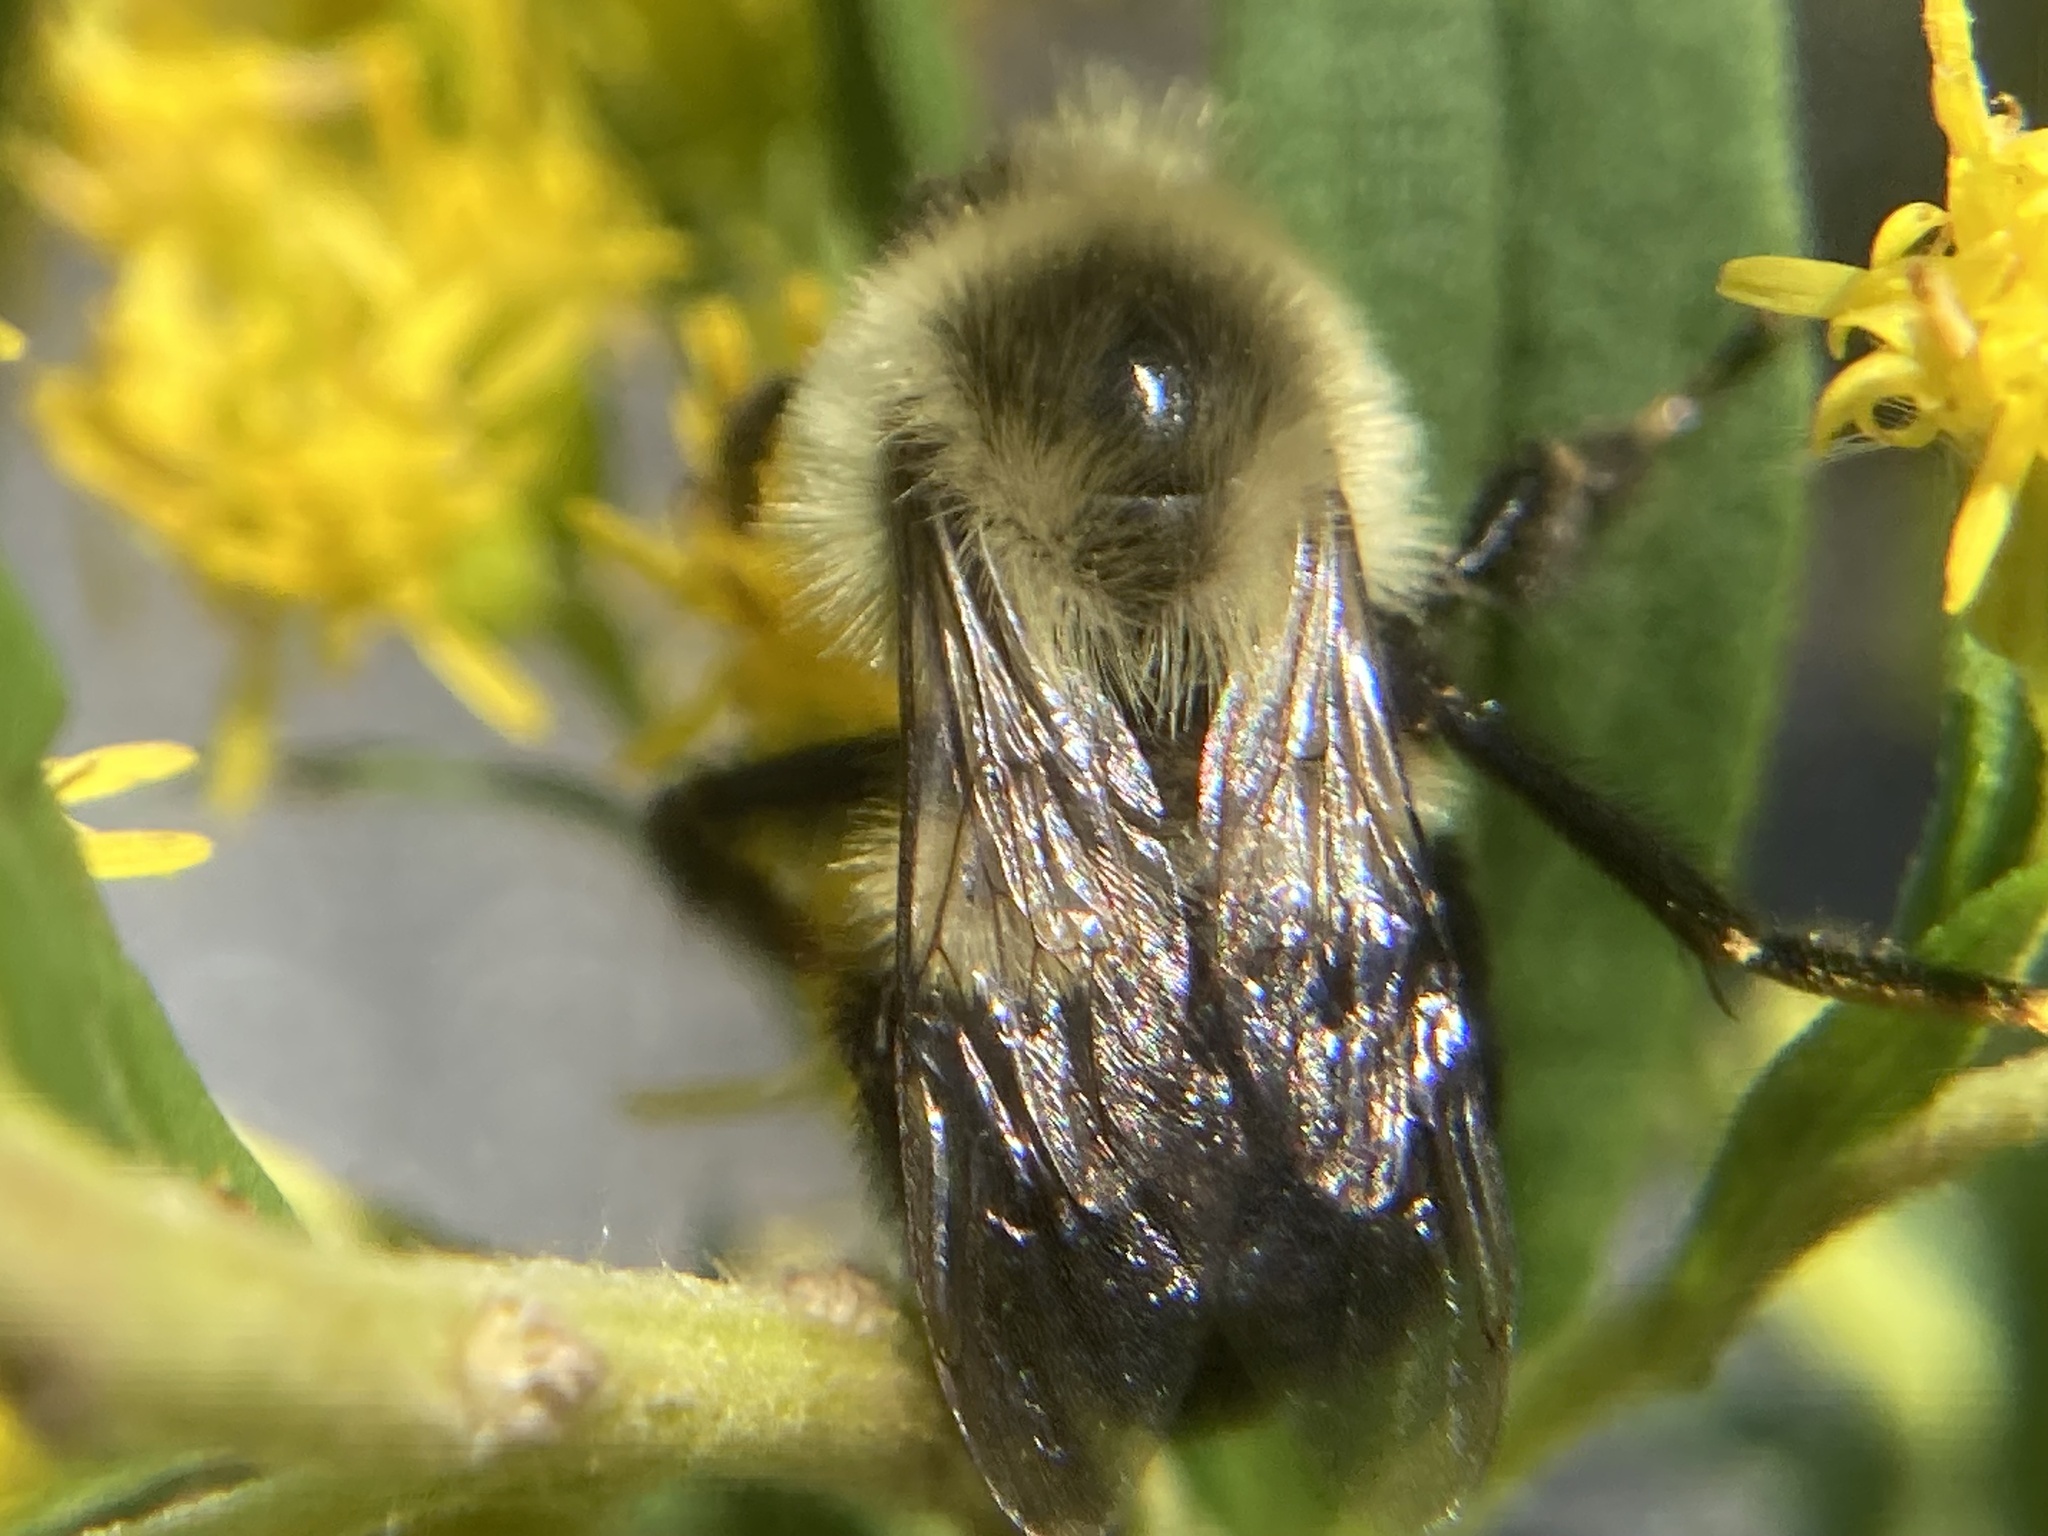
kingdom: Animalia
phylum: Arthropoda
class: Insecta
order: Hymenoptera
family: Apidae
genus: Bombus
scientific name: Bombus impatiens
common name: Common eastern bumble bee
